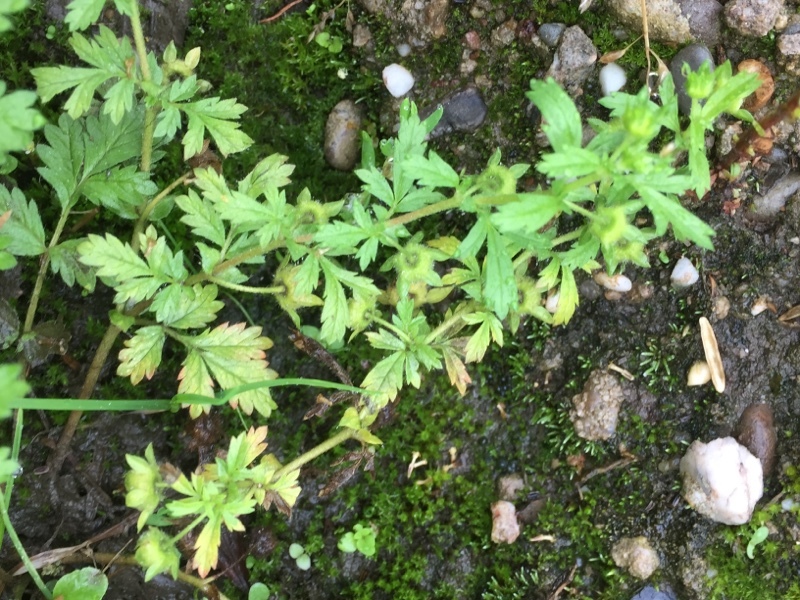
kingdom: Plantae
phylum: Tracheophyta
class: Magnoliopsida
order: Rosales
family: Rosaceae
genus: Potentilla
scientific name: Potentilla supina
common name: Prostrate cinquefoil
